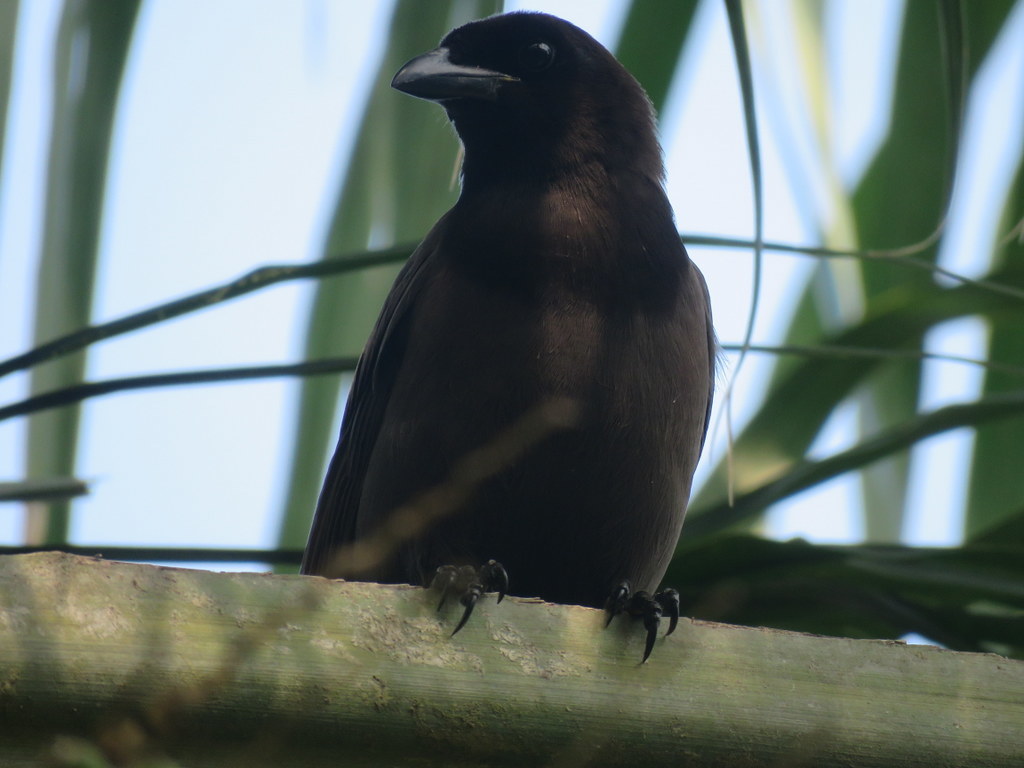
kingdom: Animalia
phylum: Chordata
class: Aves
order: Passeriformes
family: Corvidae
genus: Cyanocorax
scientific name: Cyanocorax cyanomelas
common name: Purplish jay
